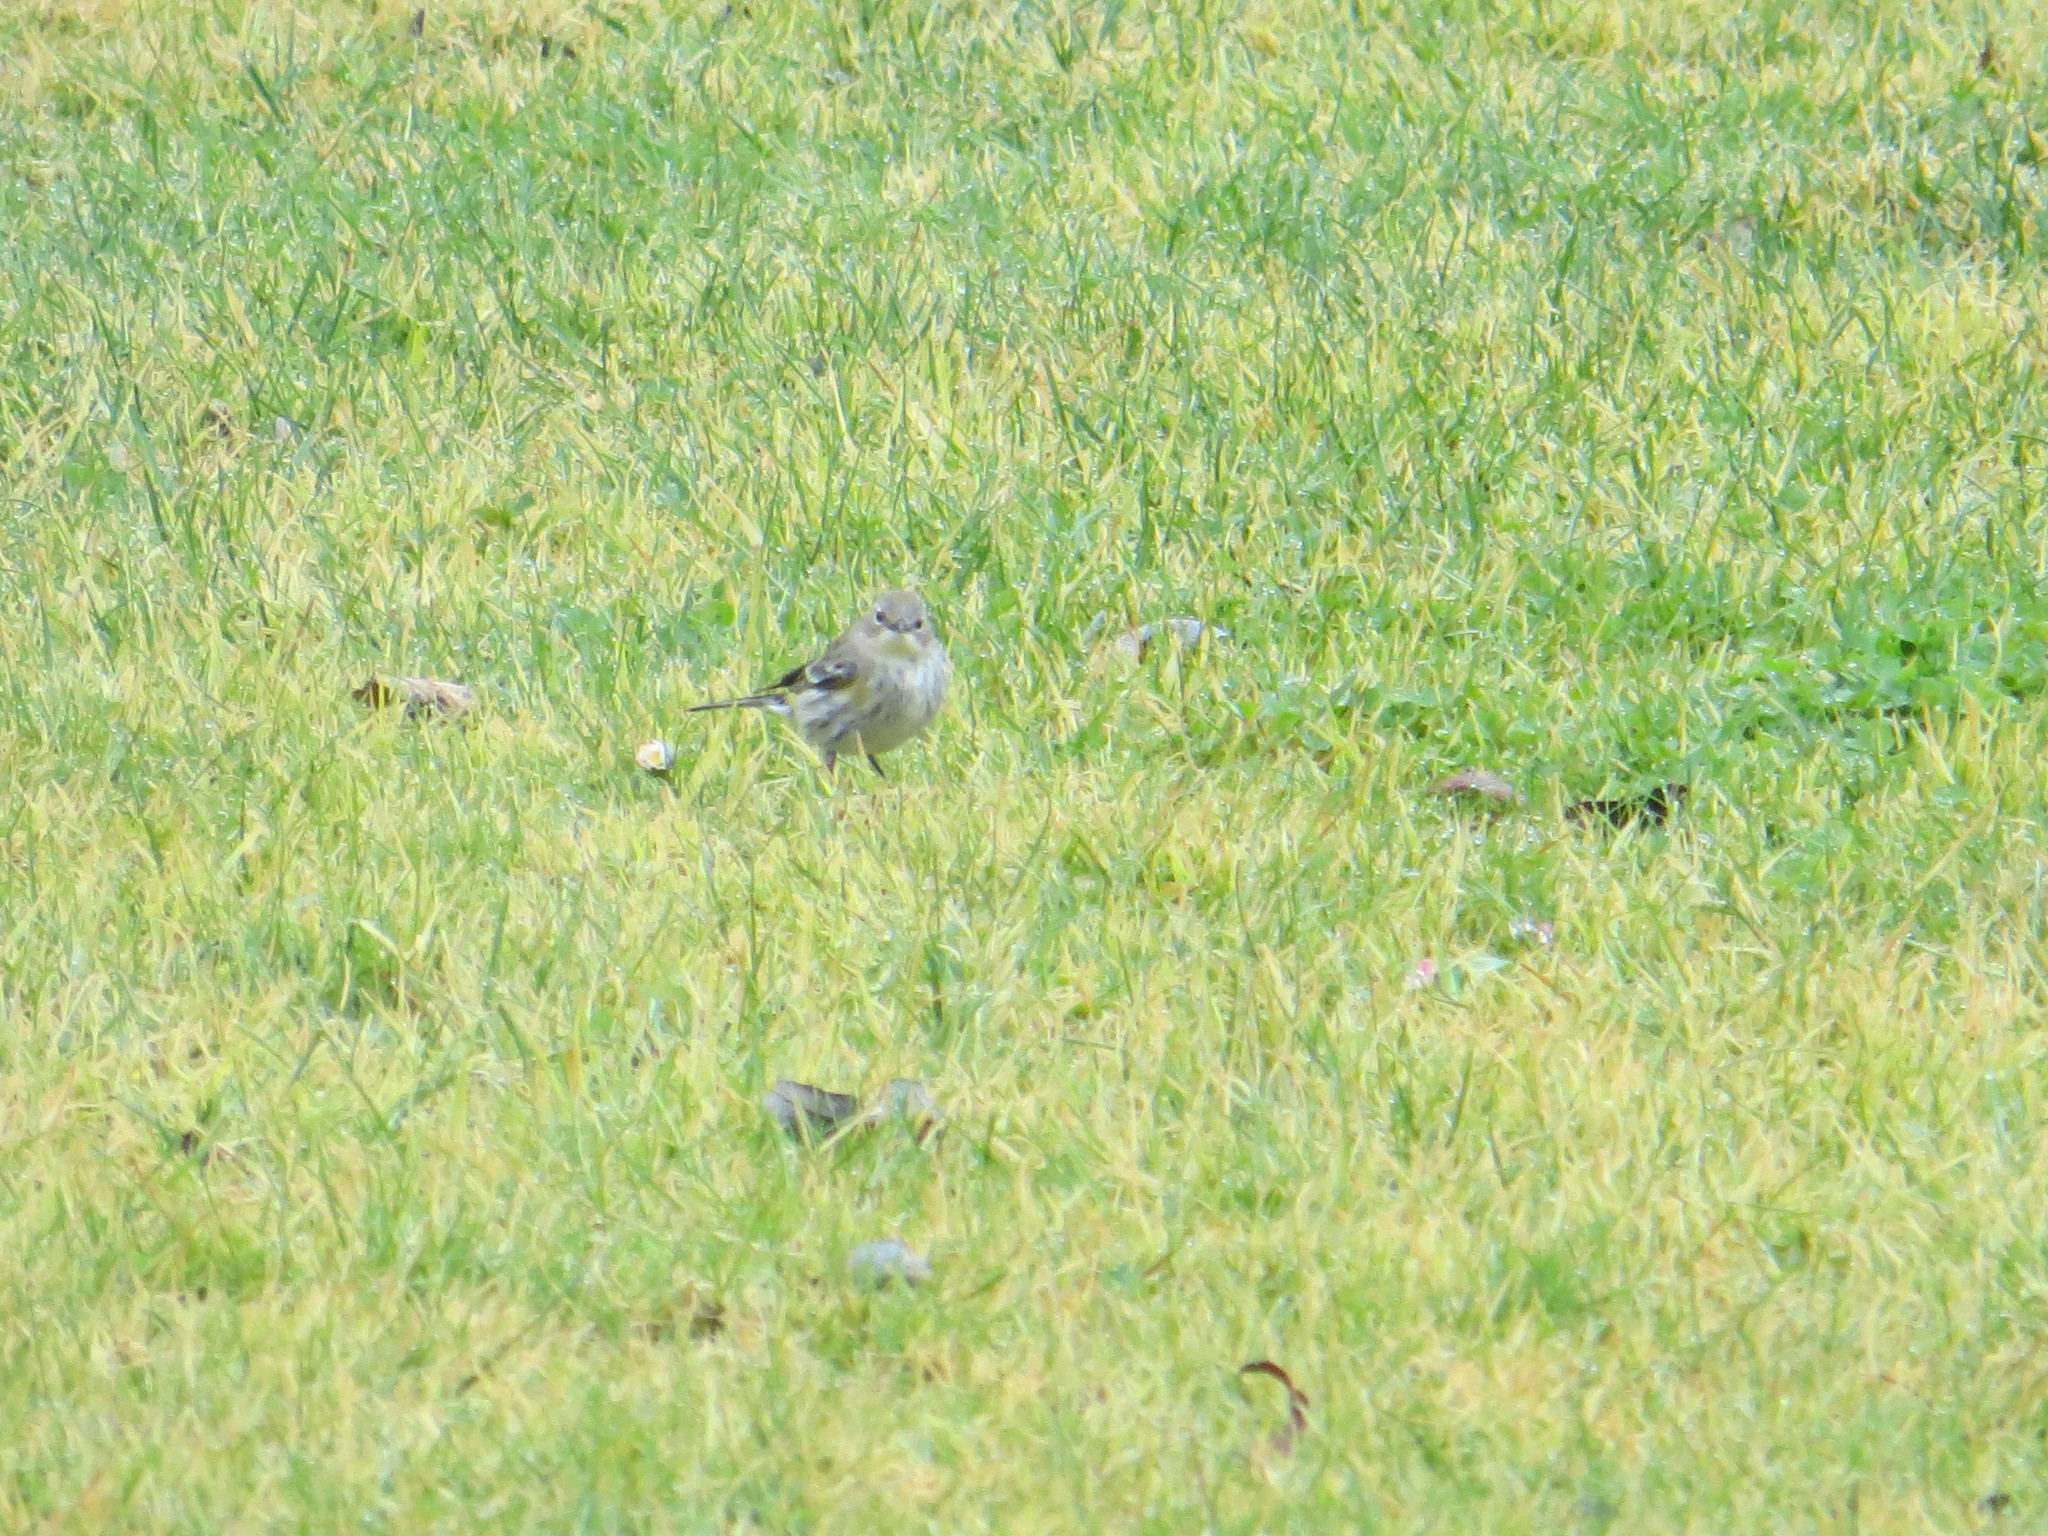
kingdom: Animalia
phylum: Chordata
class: Aves
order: Passeriformes
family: Parulidae
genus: Setophaga
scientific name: Setophaga auduboni
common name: Audubon's warbler
